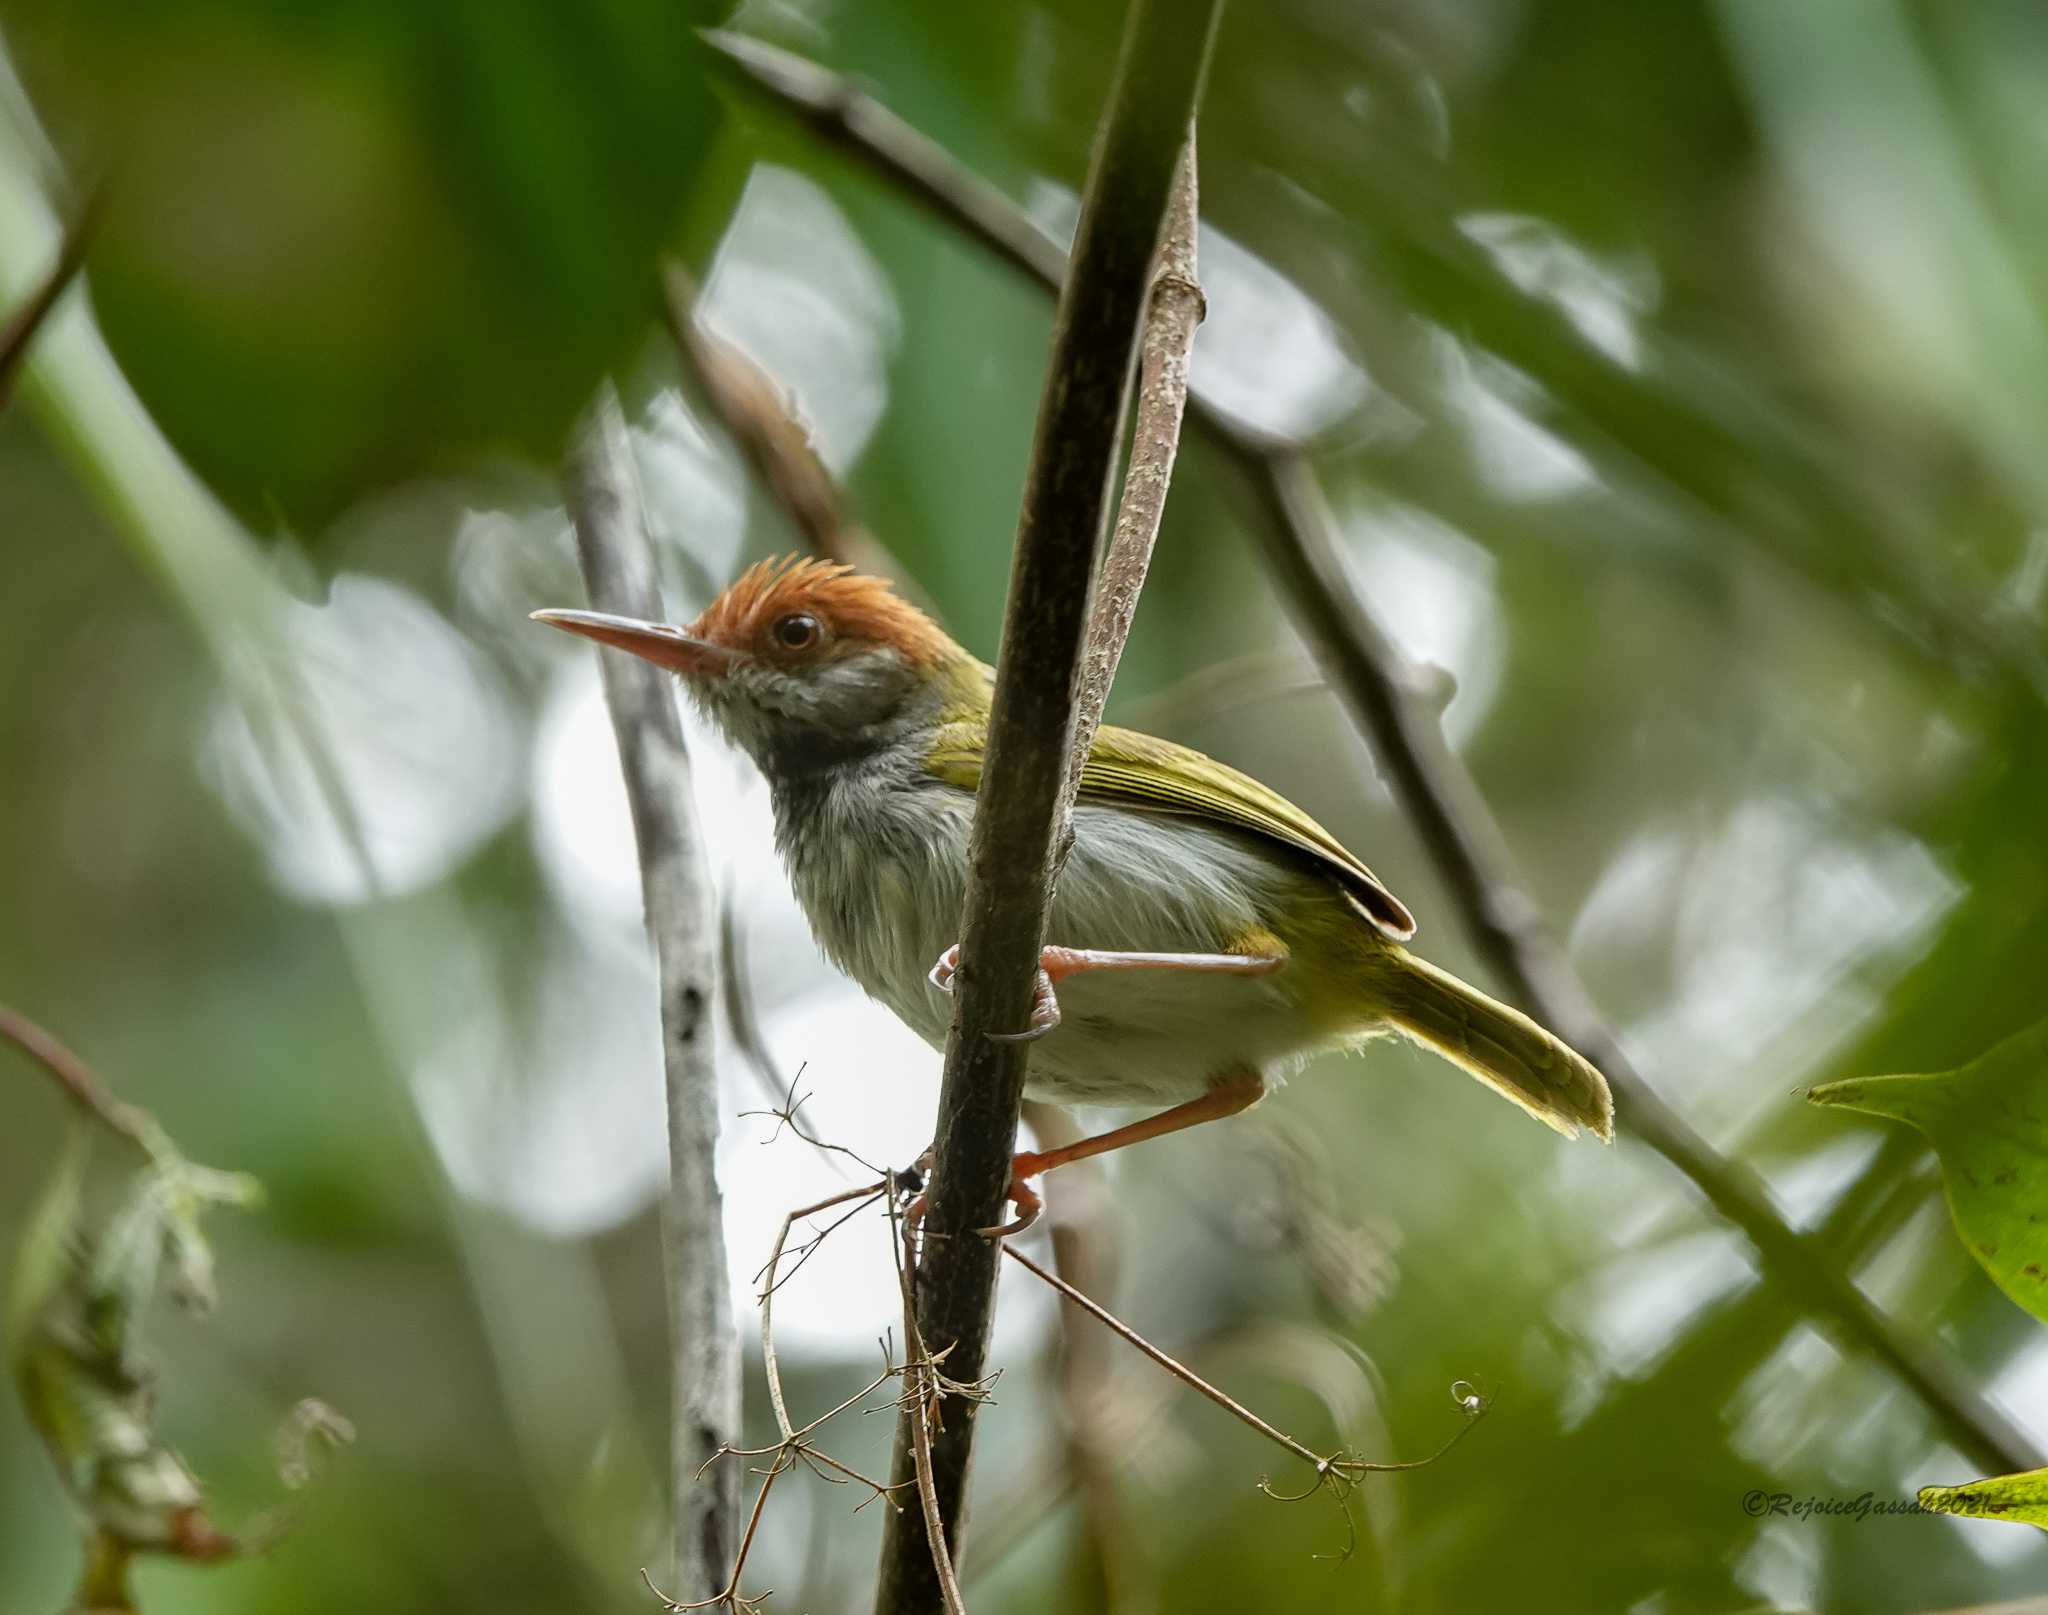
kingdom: Animalia
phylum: Chordata
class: Aves
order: Passeriformes
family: Cisticolidae
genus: Orthotomus
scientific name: Orthotomus atrogularis
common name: Dark-necked tailorbird
